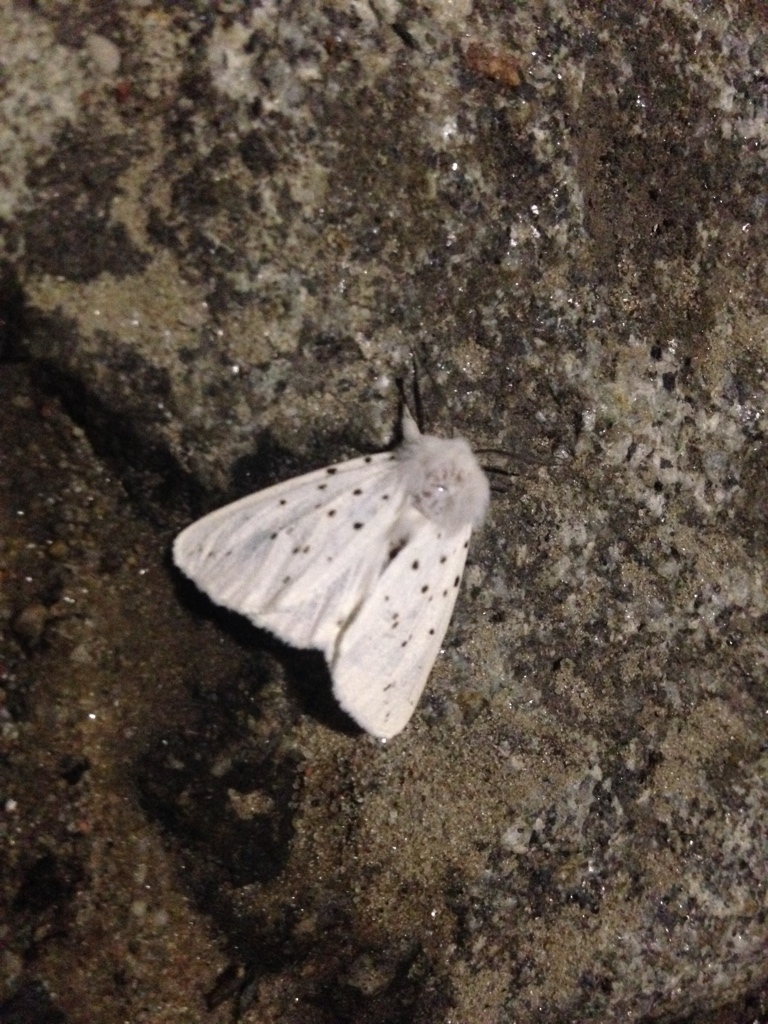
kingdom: Animalia
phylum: Arthropoda
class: Insecta
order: Lepidoptera
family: Erebidae
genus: Spilosoma
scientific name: Spilosoma lubricipeda
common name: White ermine
